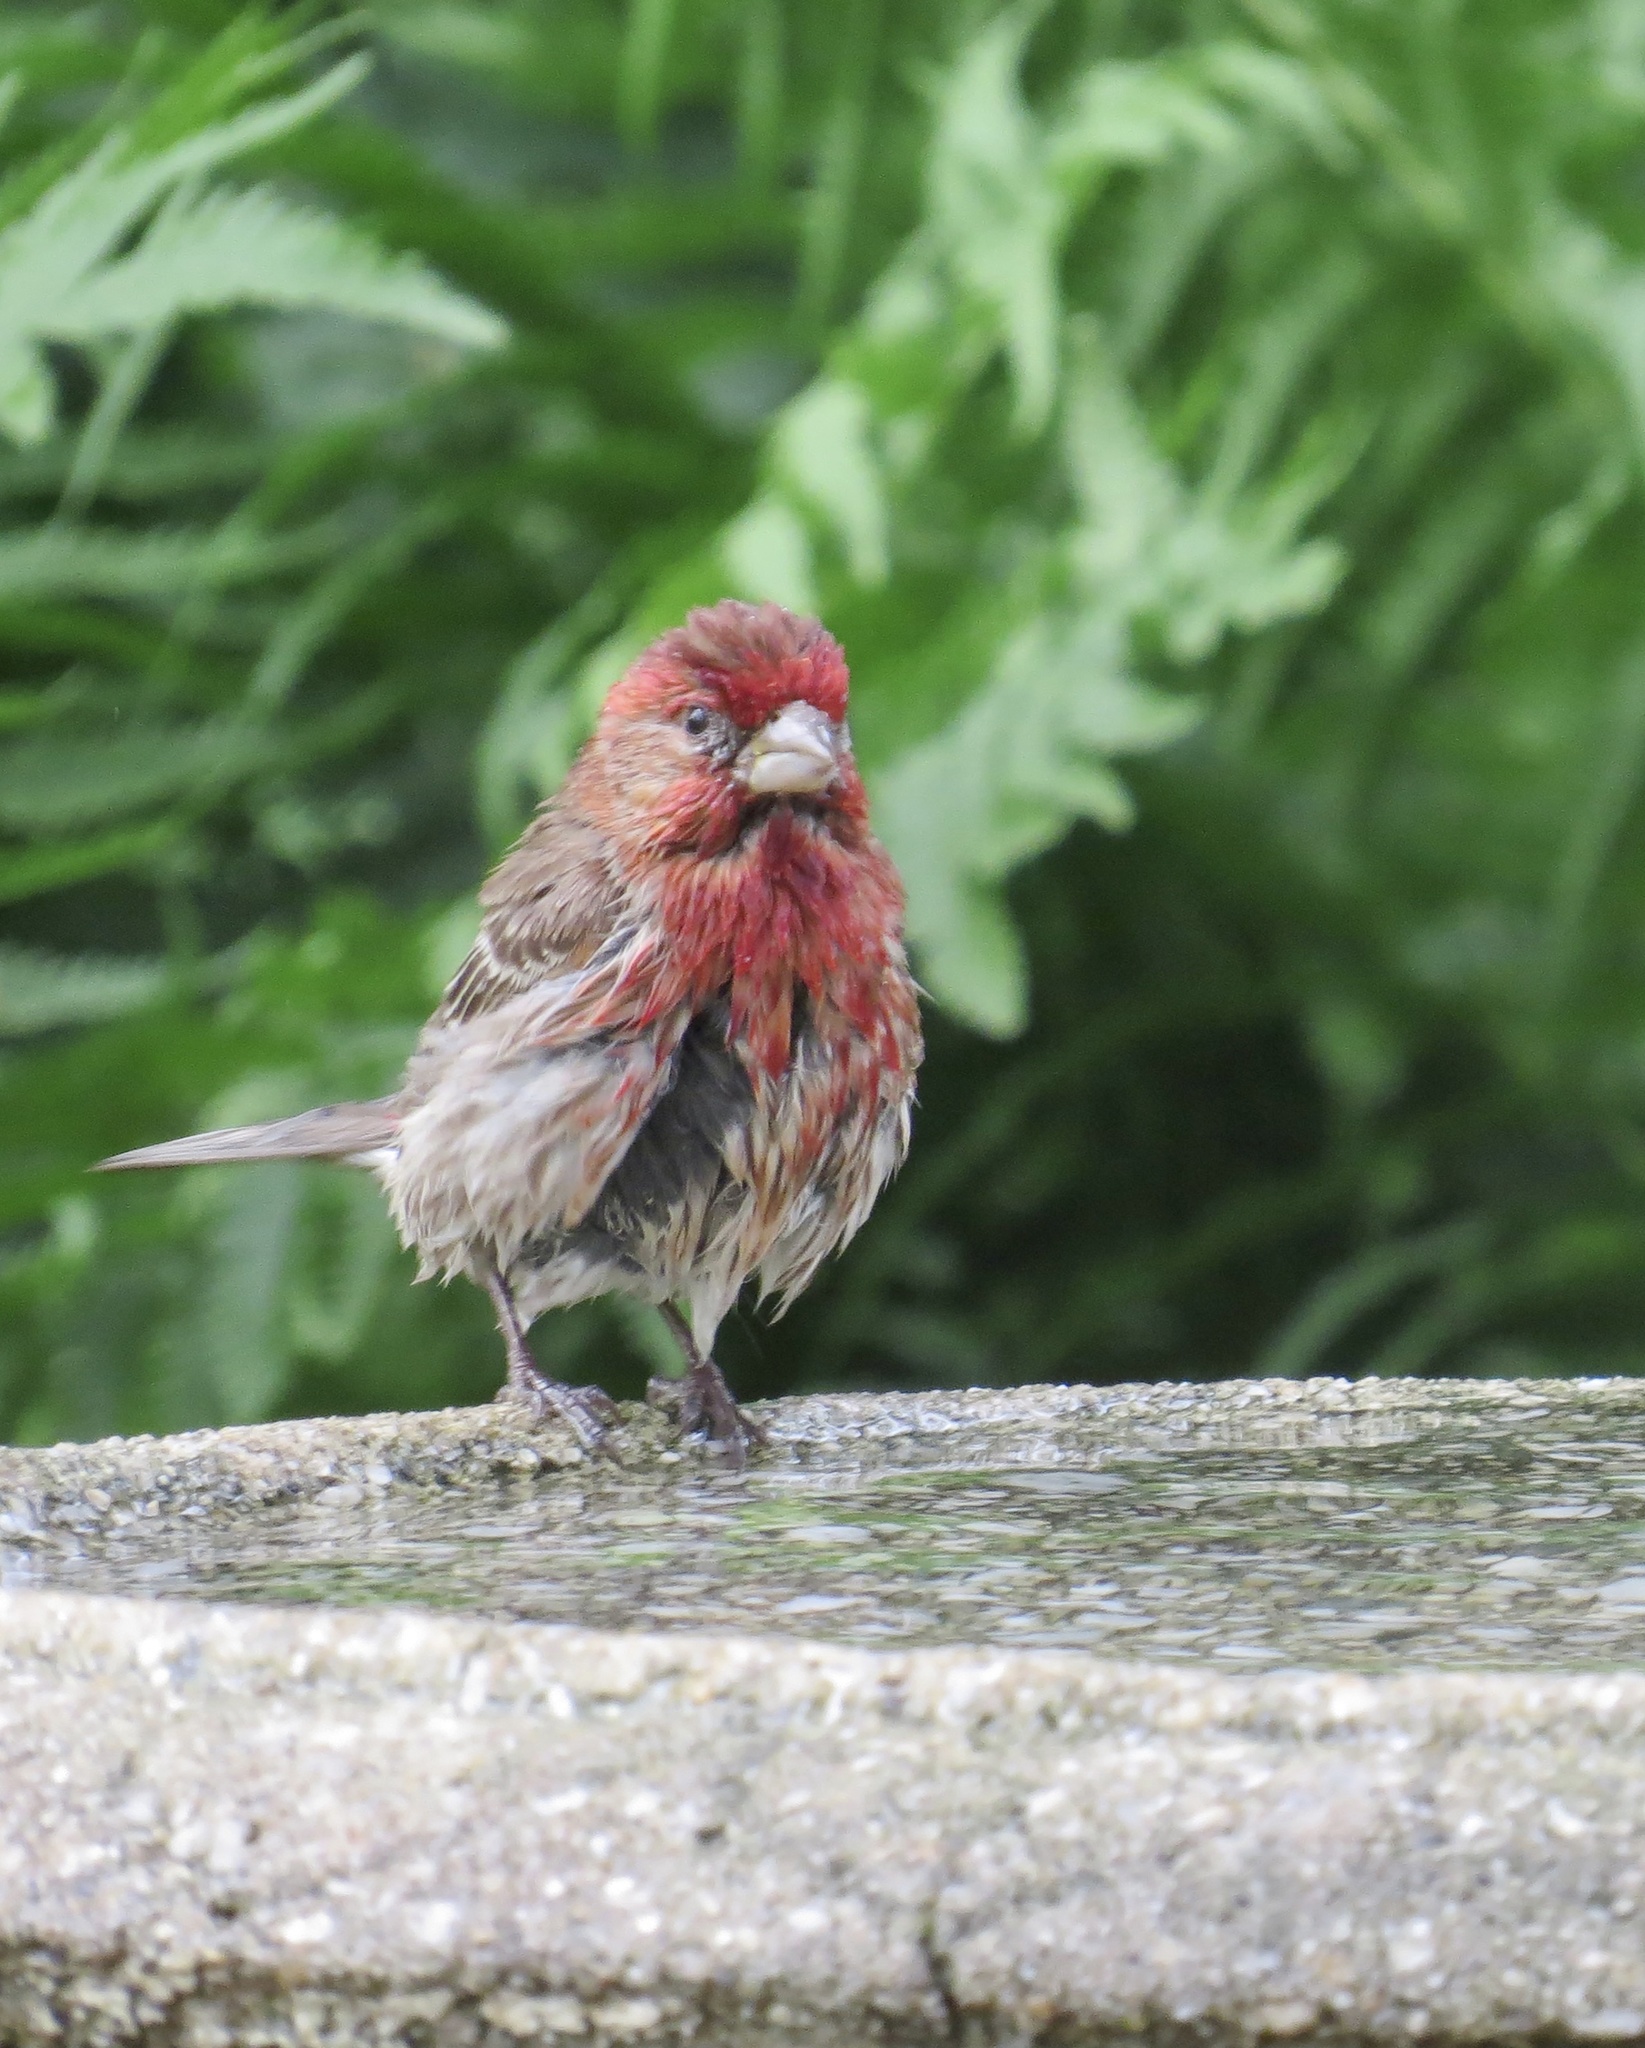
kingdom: Animalia
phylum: Chordata
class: Aves
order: Passeriformes
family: Fringillidae
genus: Haemorhous
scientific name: Haemorhous mexicanus
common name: House finch
